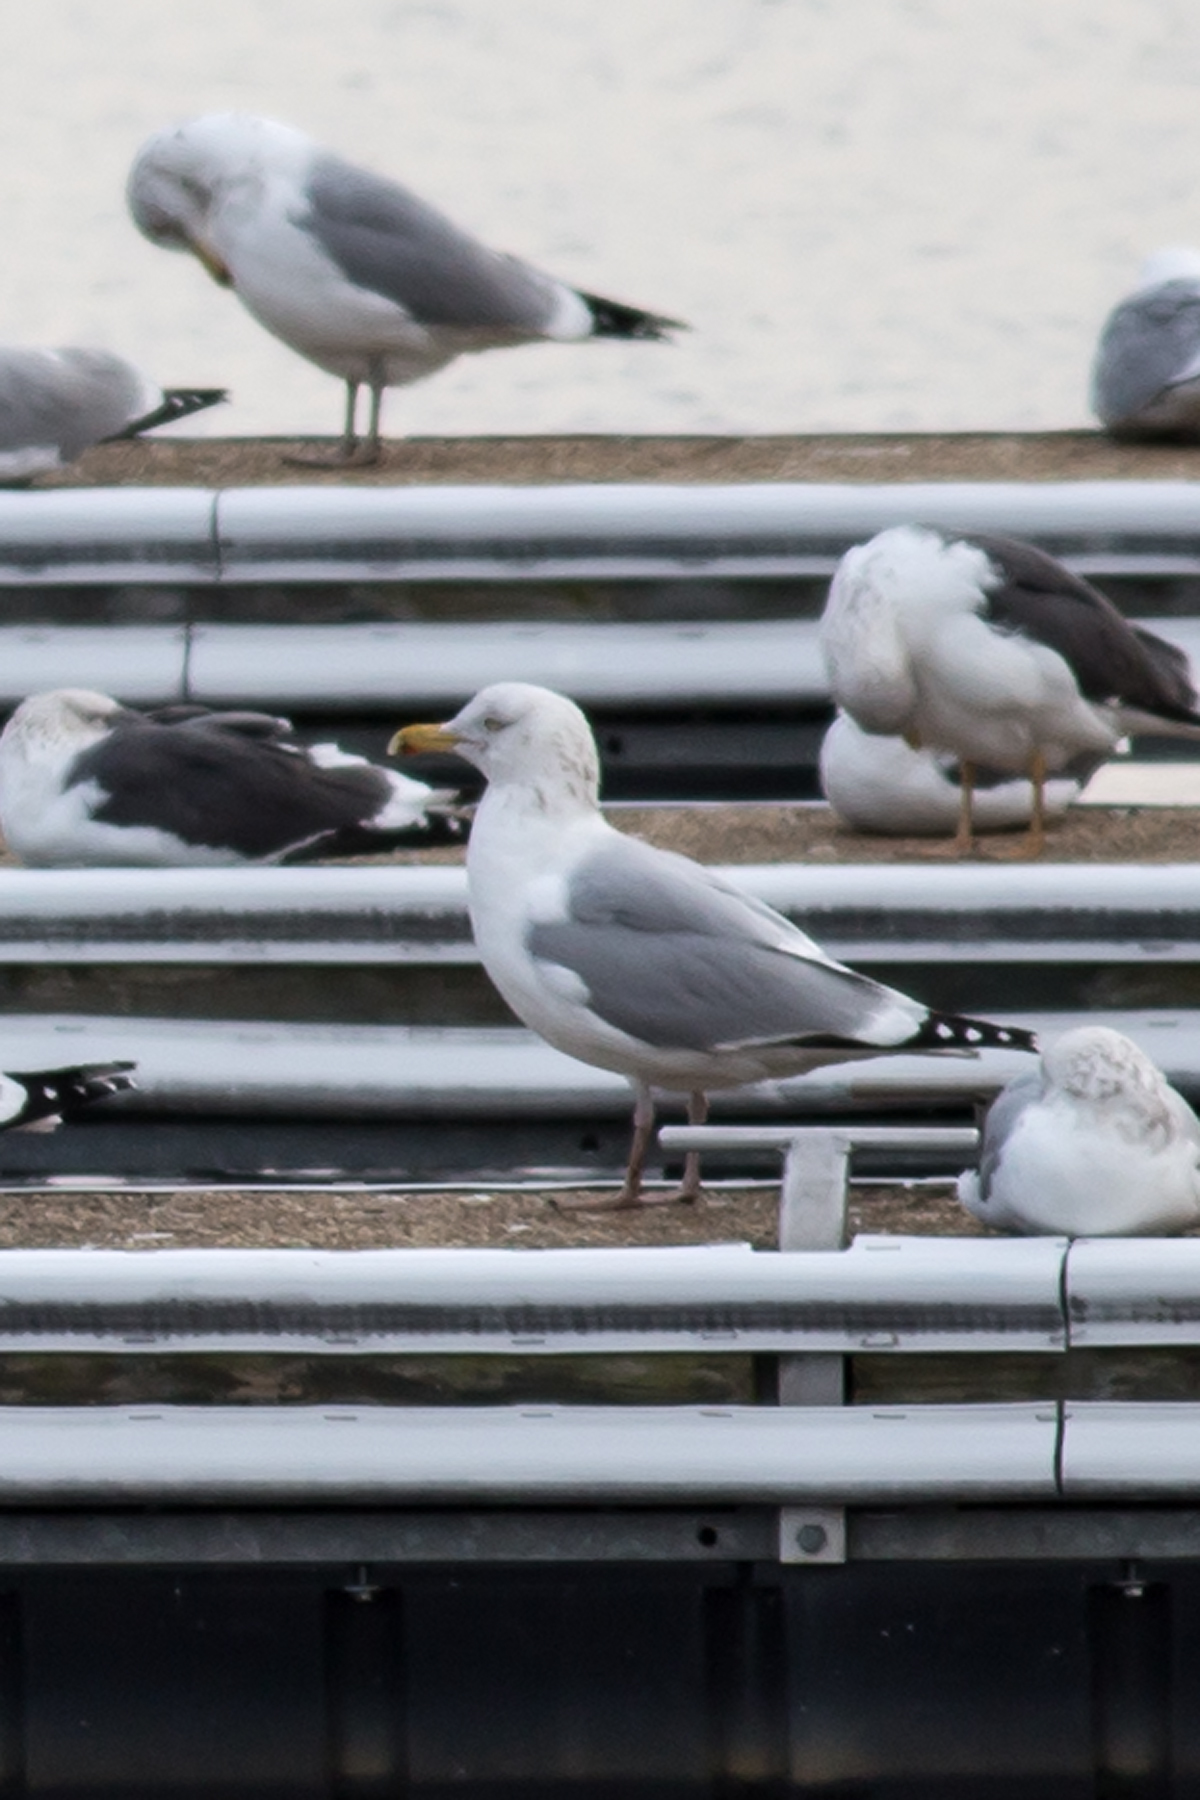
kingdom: Animalia
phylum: Chordata
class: Aves
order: Charadriiformes
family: Laridae
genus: Larus
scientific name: Larus argentatus
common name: Herring gull
